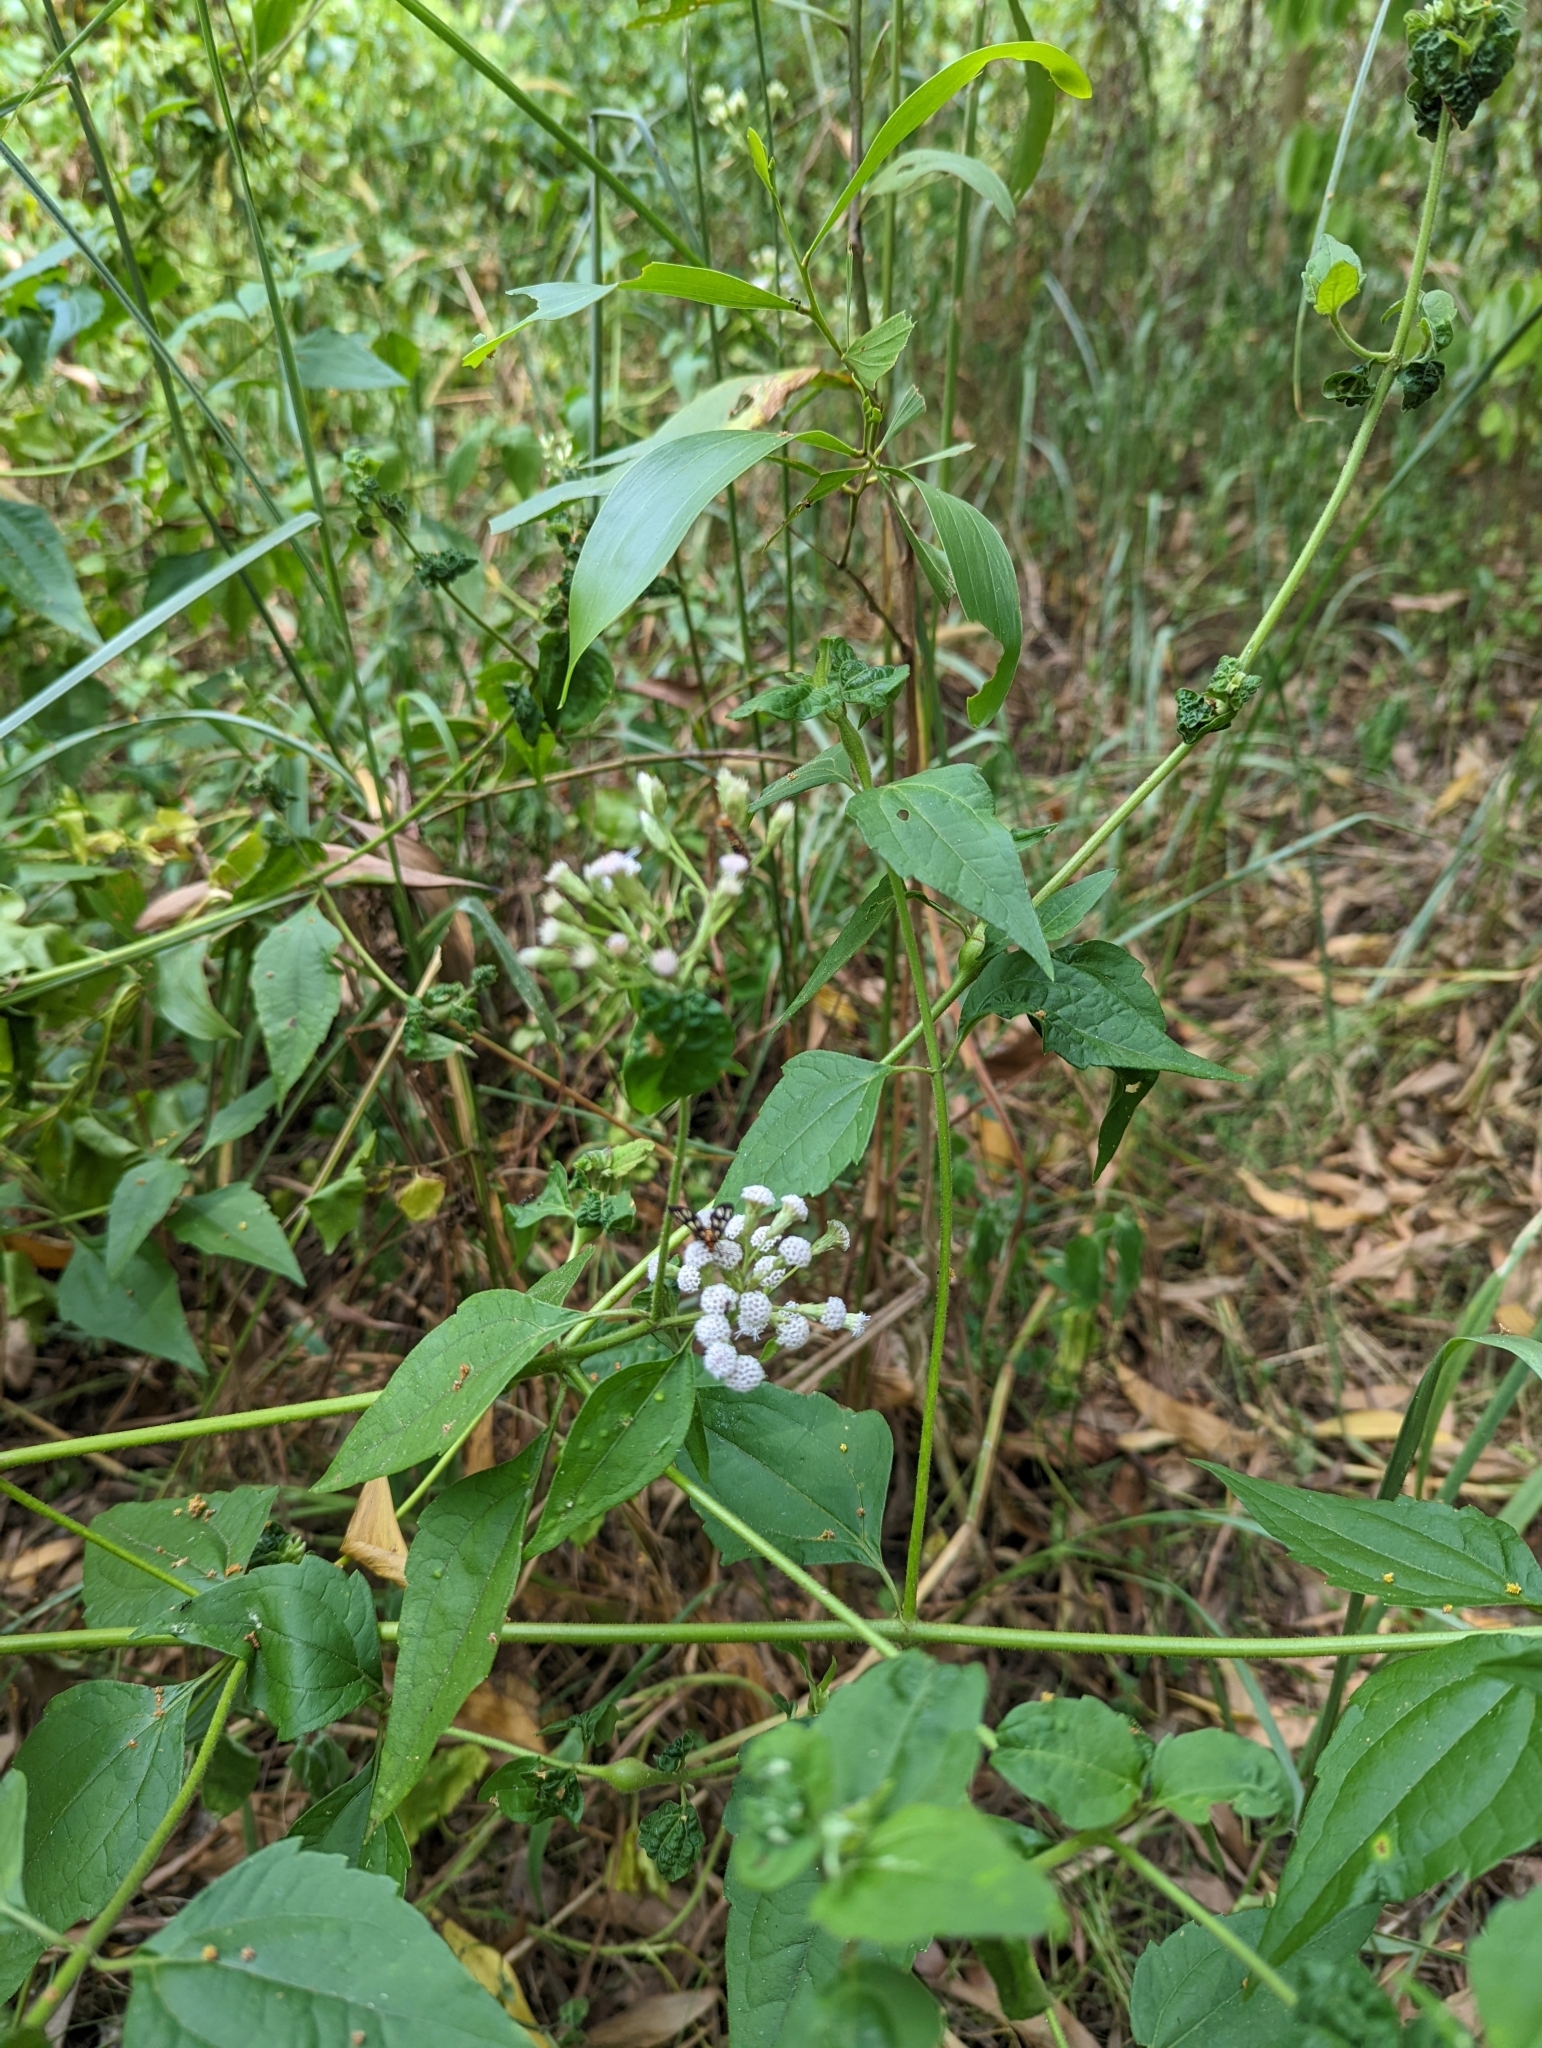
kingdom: Plantae
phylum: Tracheophyta
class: Magnoliopsida
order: Asterales
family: Asteraceae
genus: Chromolaena
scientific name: Chromolaena odorata
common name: Siamweed
